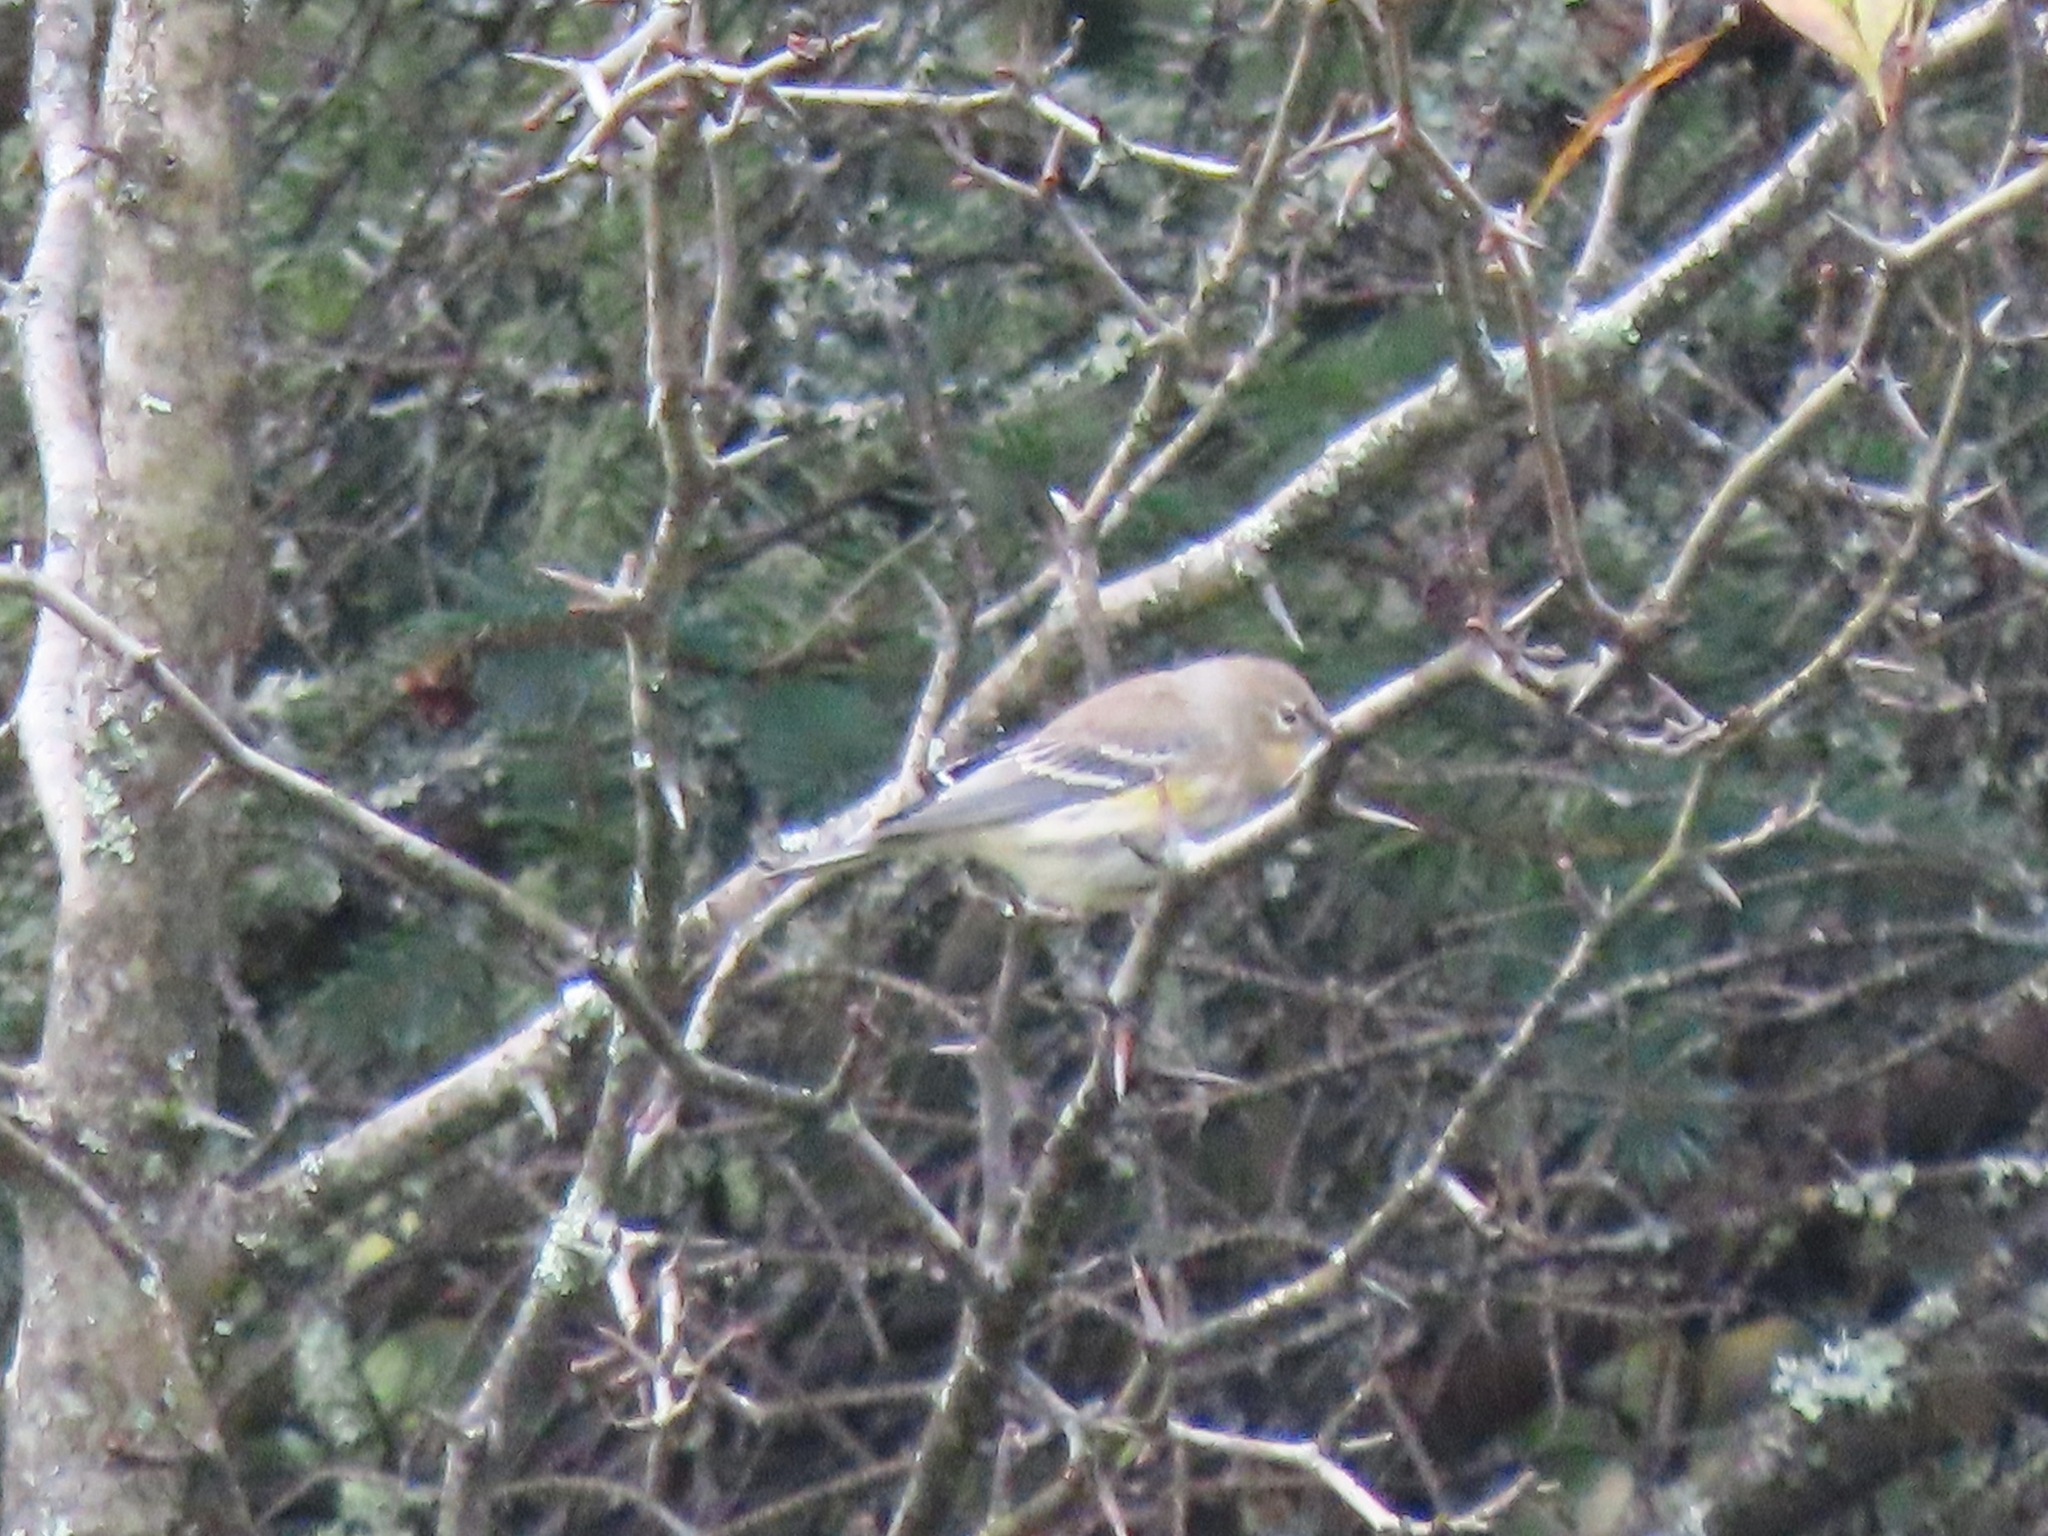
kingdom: Animalia
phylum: Chordata
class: Aves
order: Passeriformes
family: Parulidae
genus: Setophaga
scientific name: Setophaga coronata
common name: Myrtle warbler
